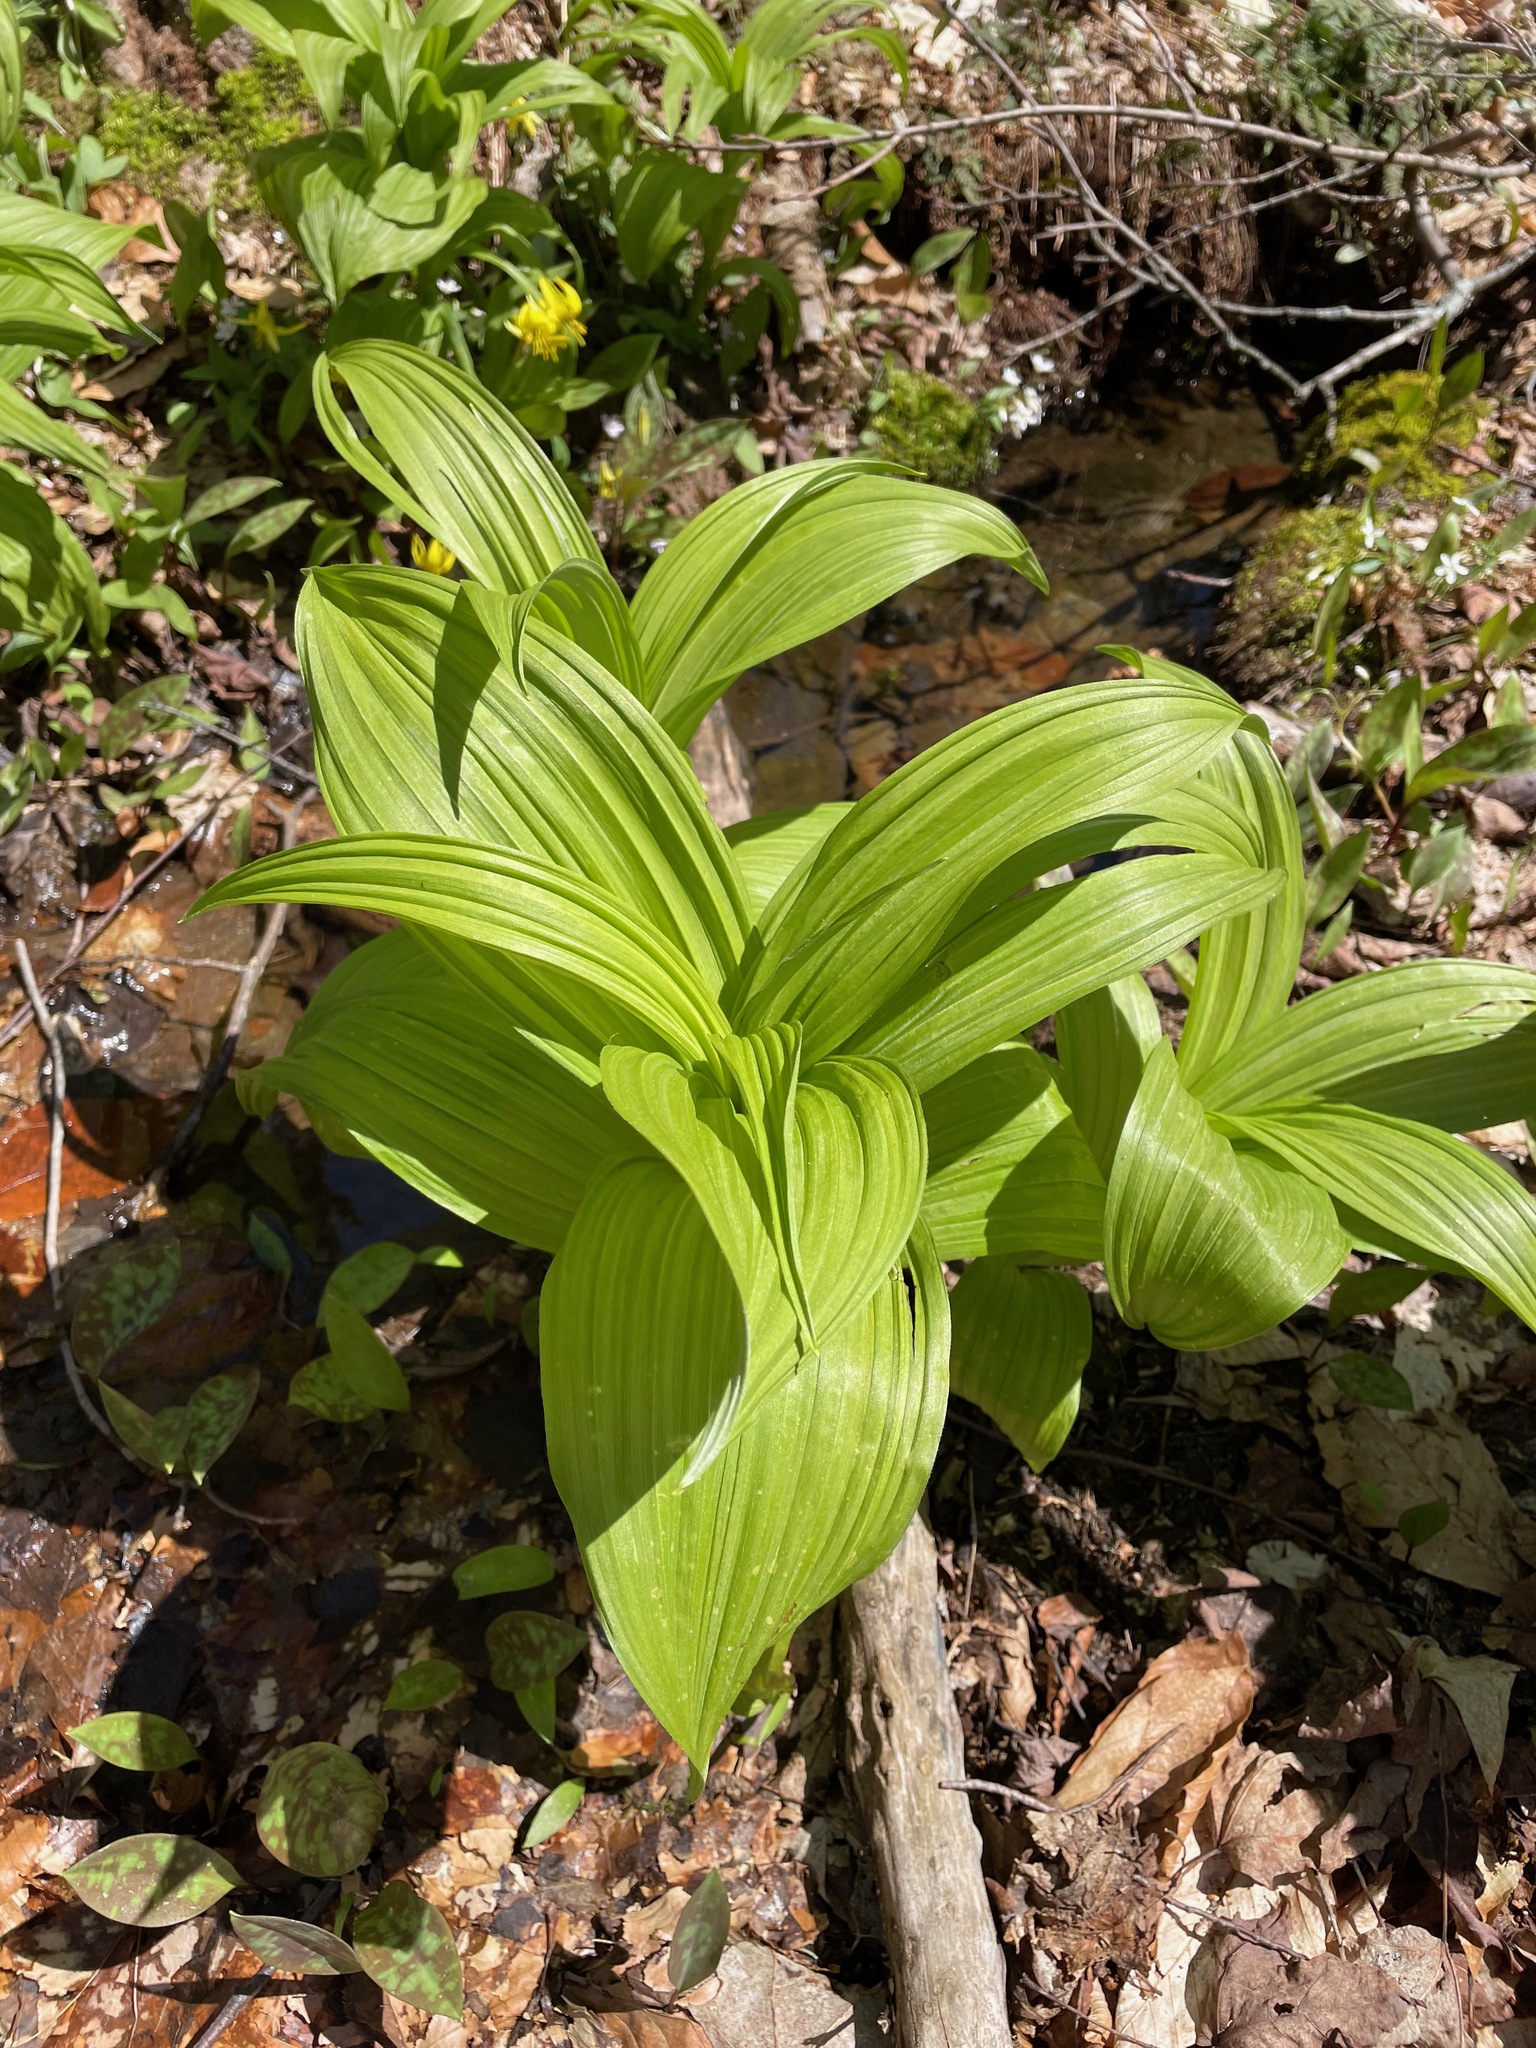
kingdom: Plantae
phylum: Tracheophyta
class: Liliopsida
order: Liliales
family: Melanthiaceae
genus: Veratrum
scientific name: Veratrum viride
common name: American false hellebore
